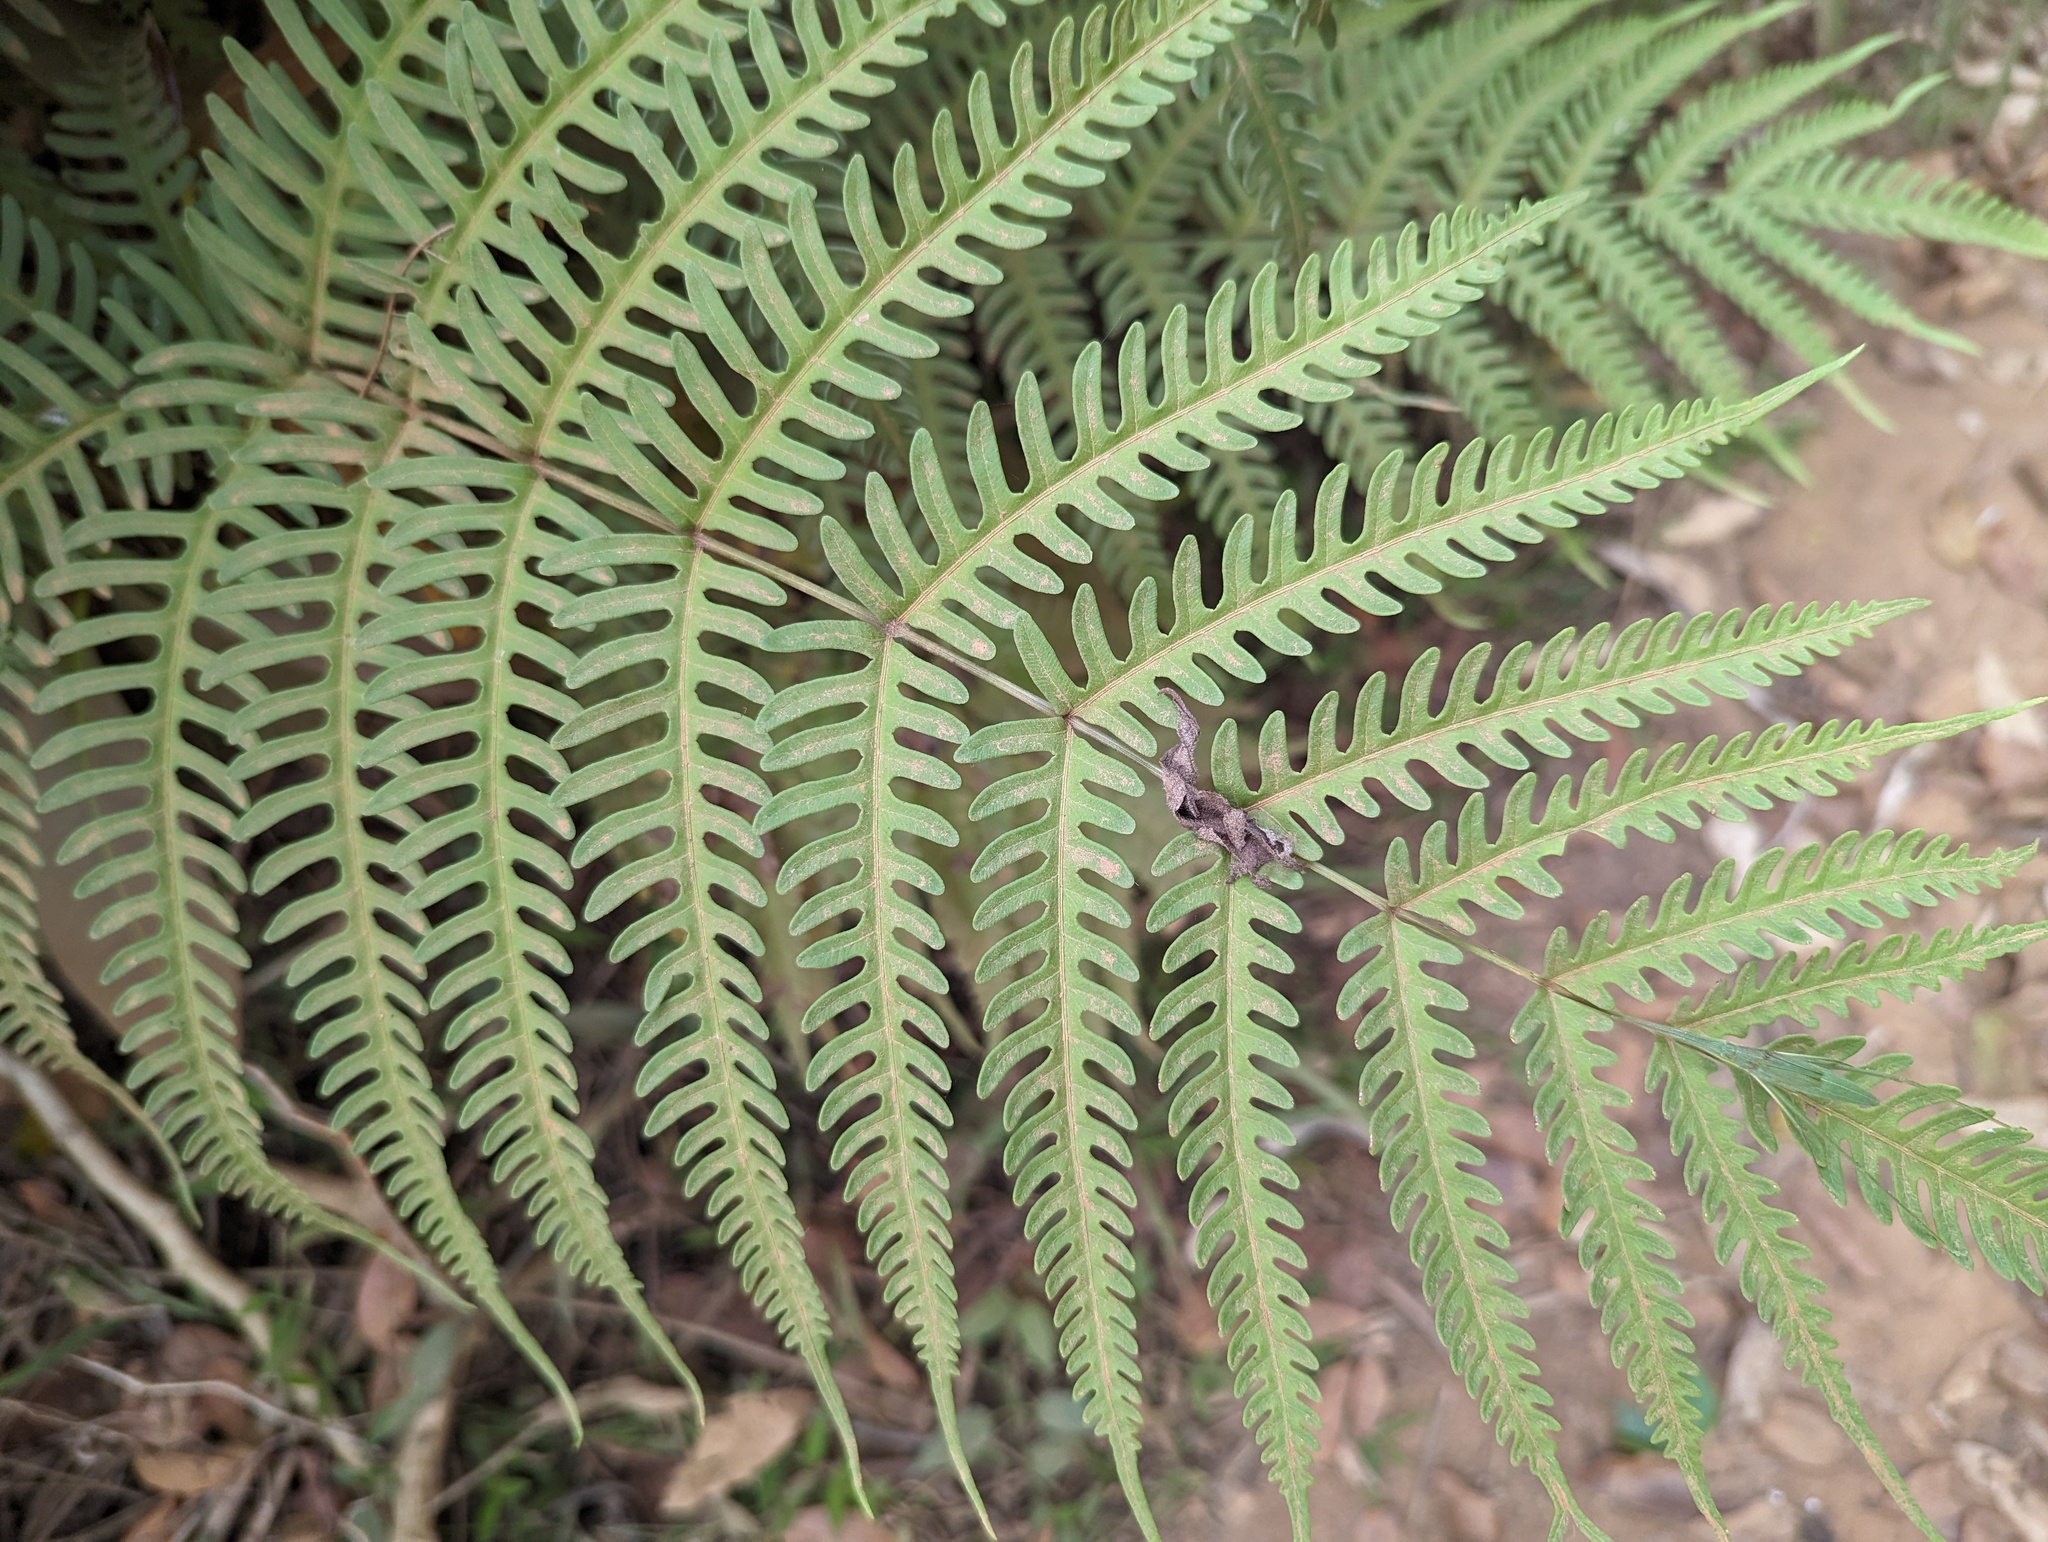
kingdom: Plantae
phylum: Tracheophyta
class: Polypodiopsida
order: Polypodiales
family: Pteridaceae
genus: Pteris
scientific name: Pteris biaurita
